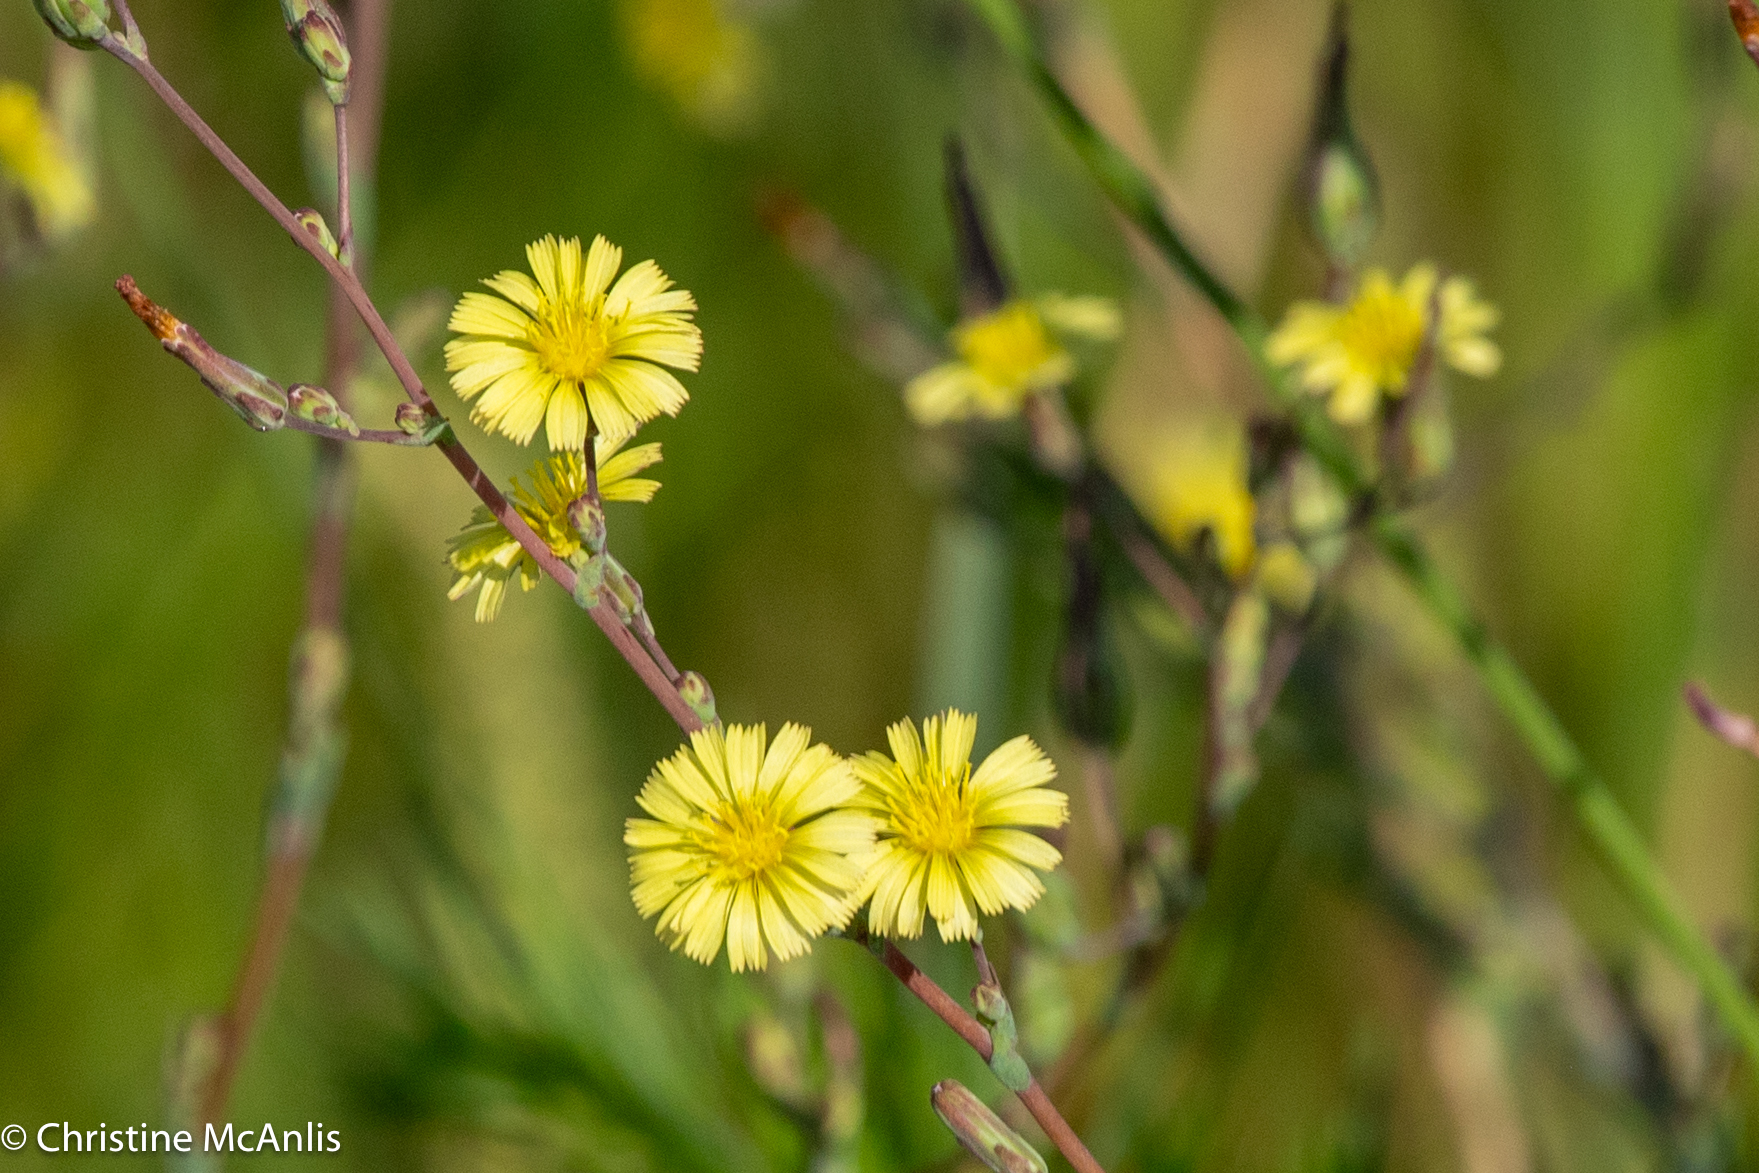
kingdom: Plantae
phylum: Tracheophyta
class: Magnoliopsida
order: Asterales
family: Asteraceae
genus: Lactuca
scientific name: Lactuca serriola
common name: Prickly lettuce
